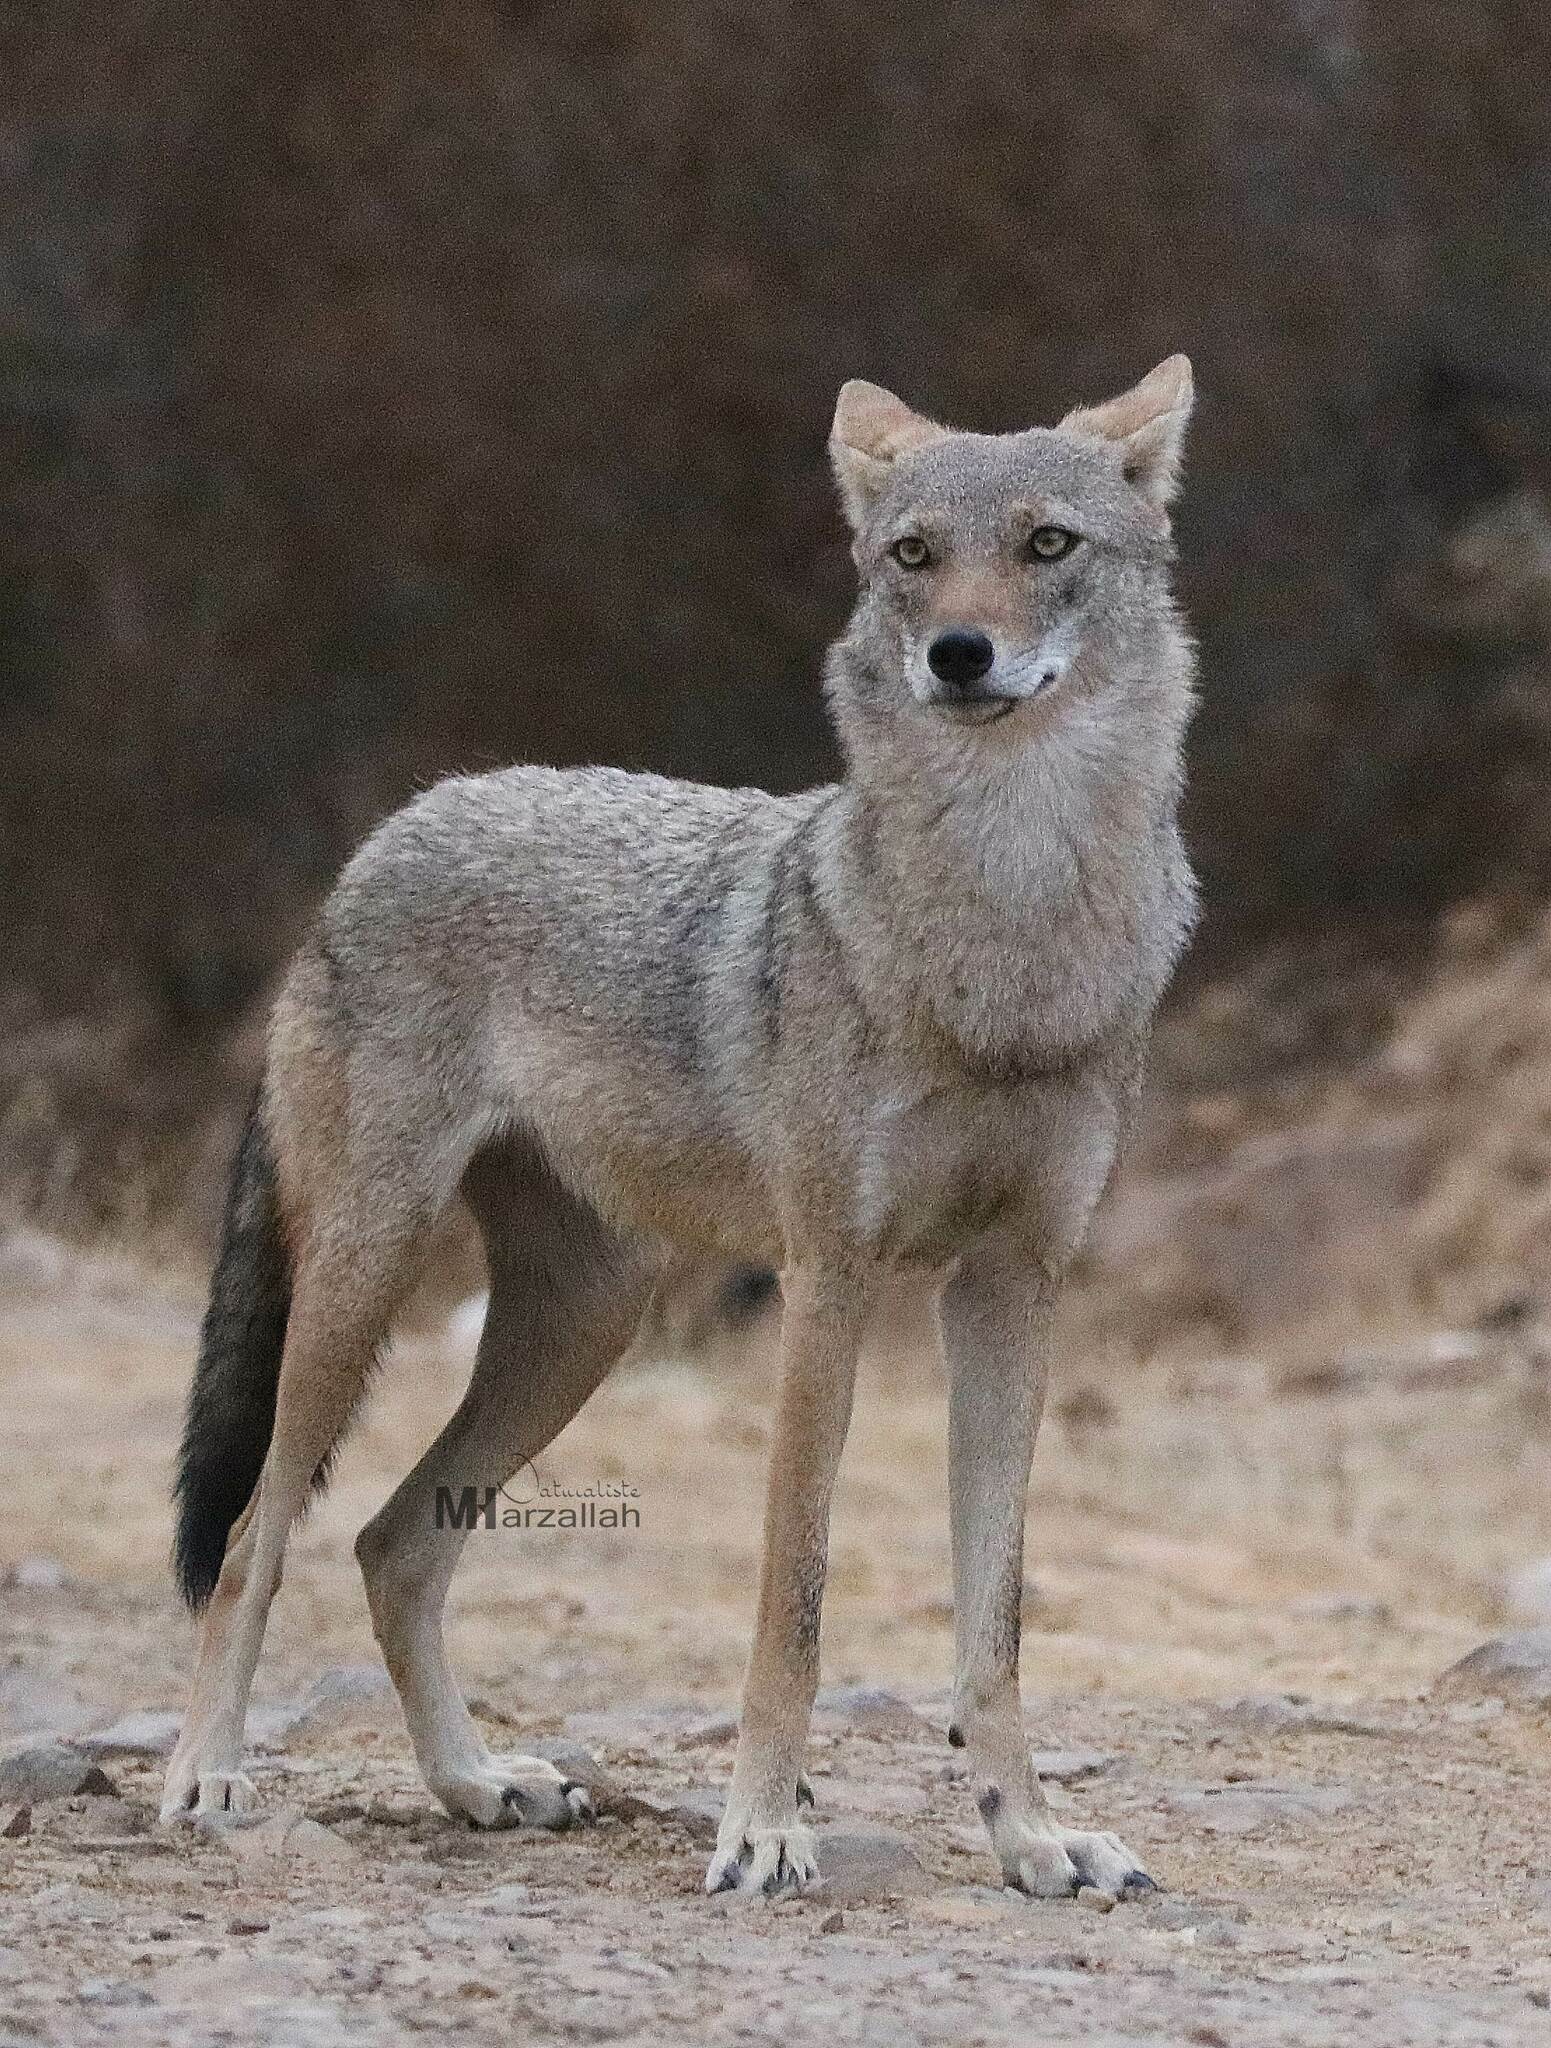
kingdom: Animalia
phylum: Chordata
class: Mammalia
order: Carnivora
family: Canidae
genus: Canis
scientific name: Canis lupaster
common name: African golden wolf
